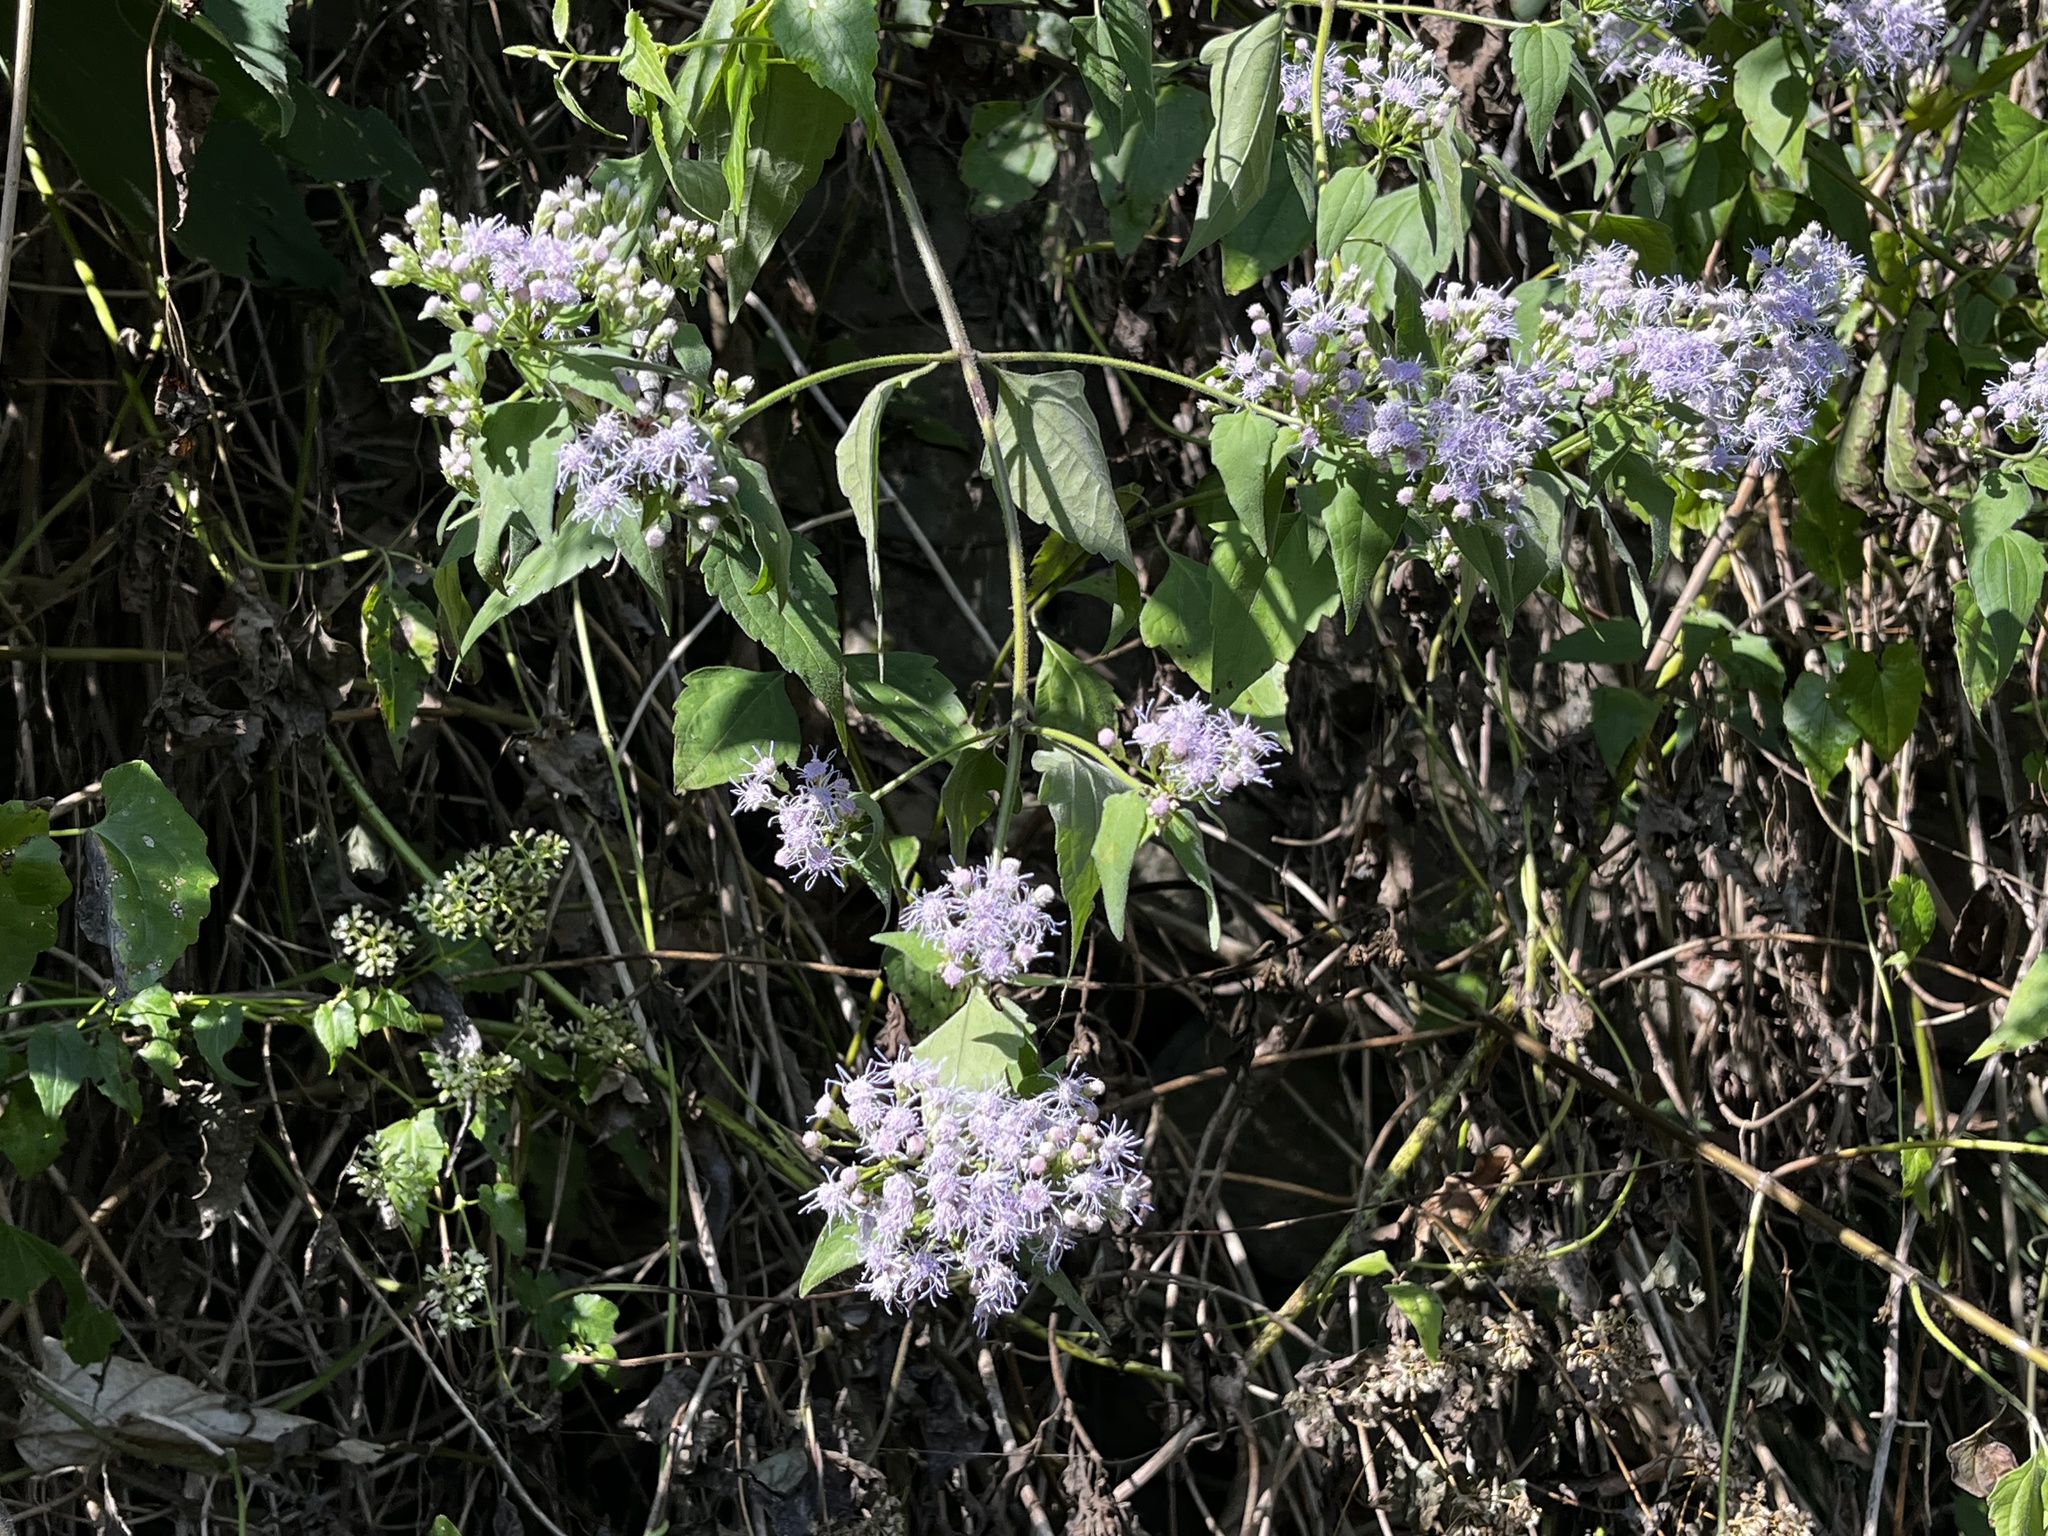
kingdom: Plantae
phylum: Tracheophyta
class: Magnoliopsida
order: Asterales
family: Asteraceae
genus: Chromolaena
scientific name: Chromolaena odorata
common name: Siamweed
